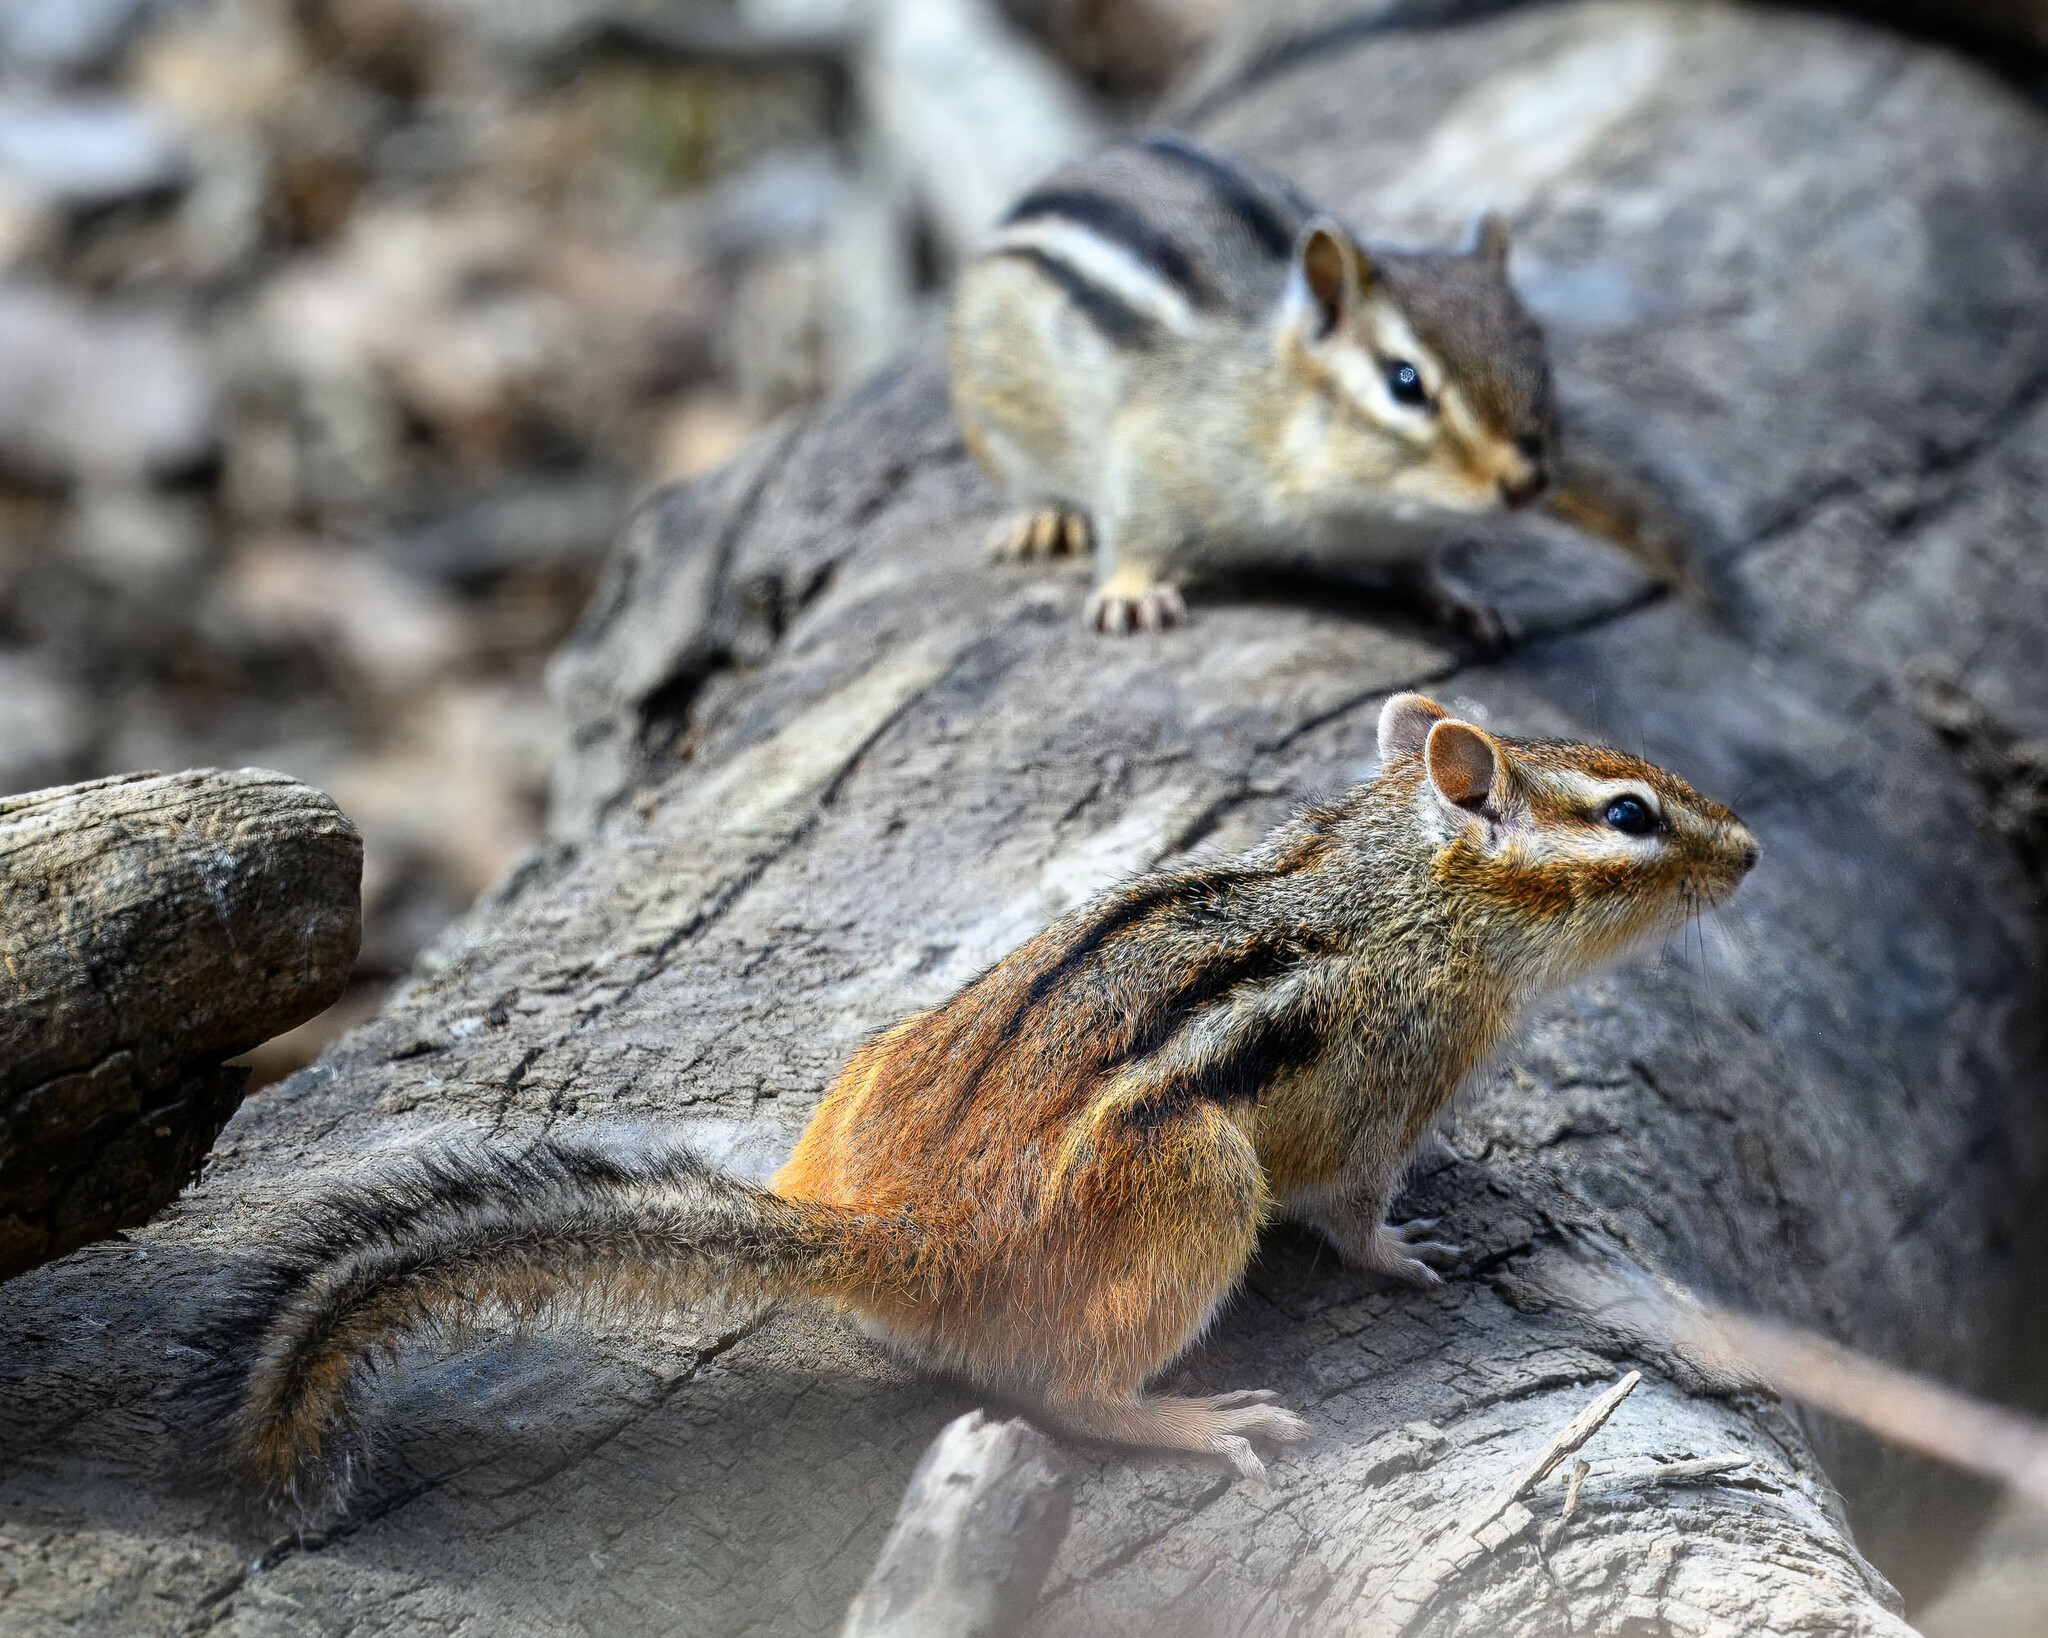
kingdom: Animalia
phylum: Chordata
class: Mammalia
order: Rodentia
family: Sciuridae
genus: Tamias
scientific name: Tamias striatus
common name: Eastern chipmunk
